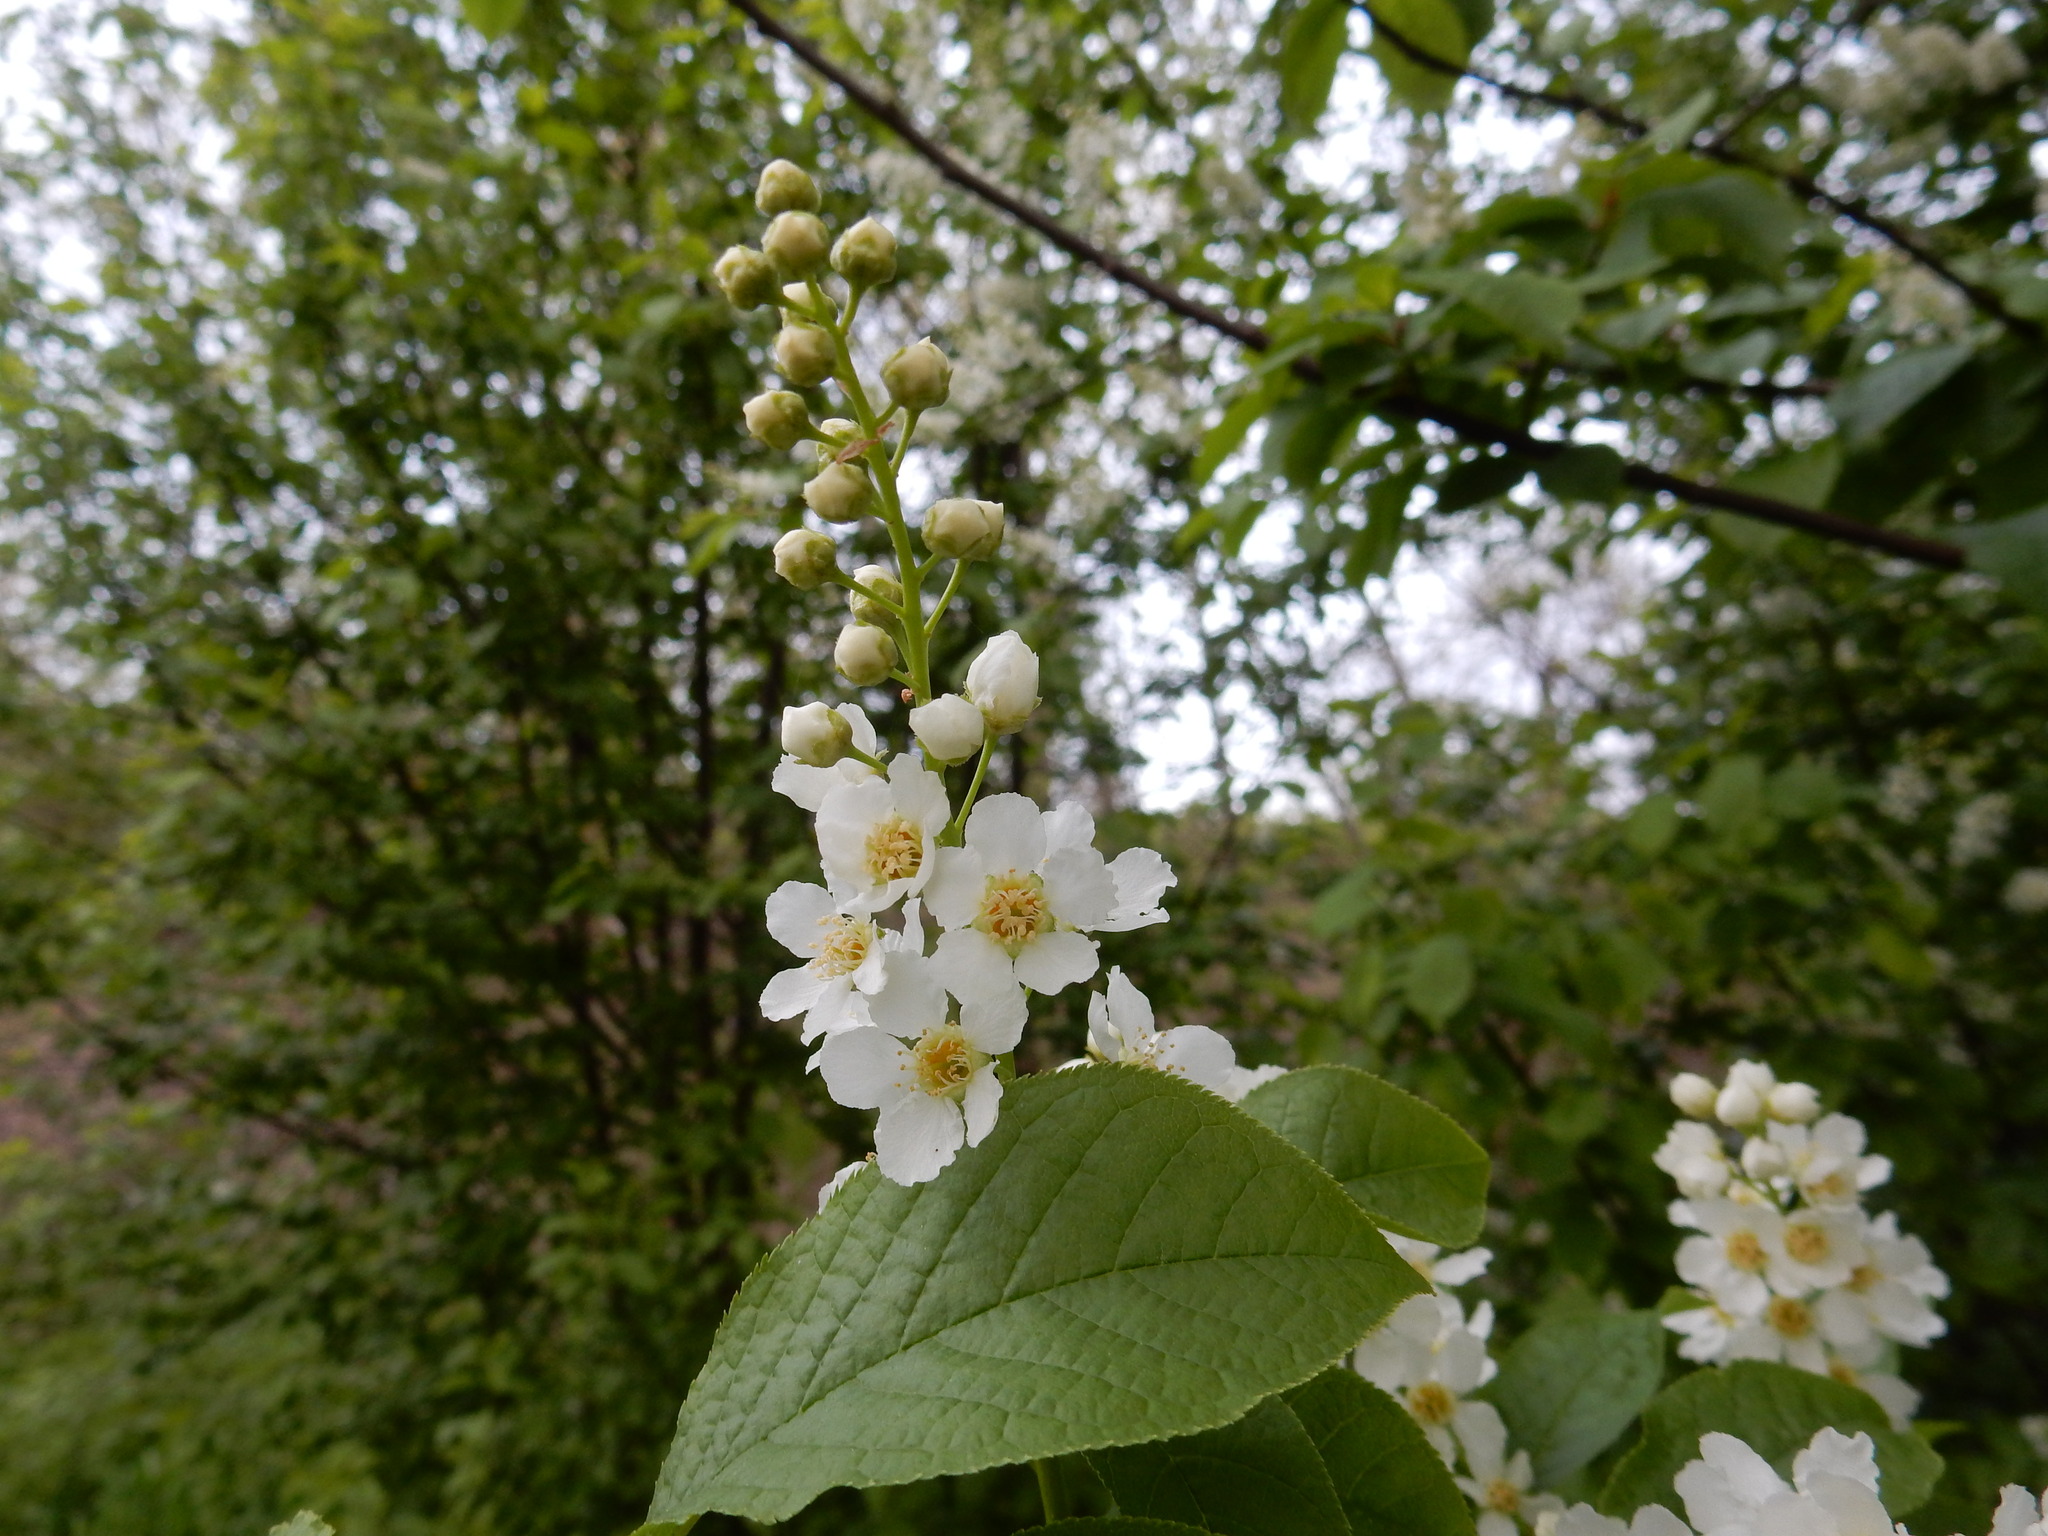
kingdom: Plantae
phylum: Tracheophyta
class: Magnoliopsida
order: Rosales
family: Rosaceae
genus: Prunus
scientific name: Prunus padus
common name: Bird cherry
